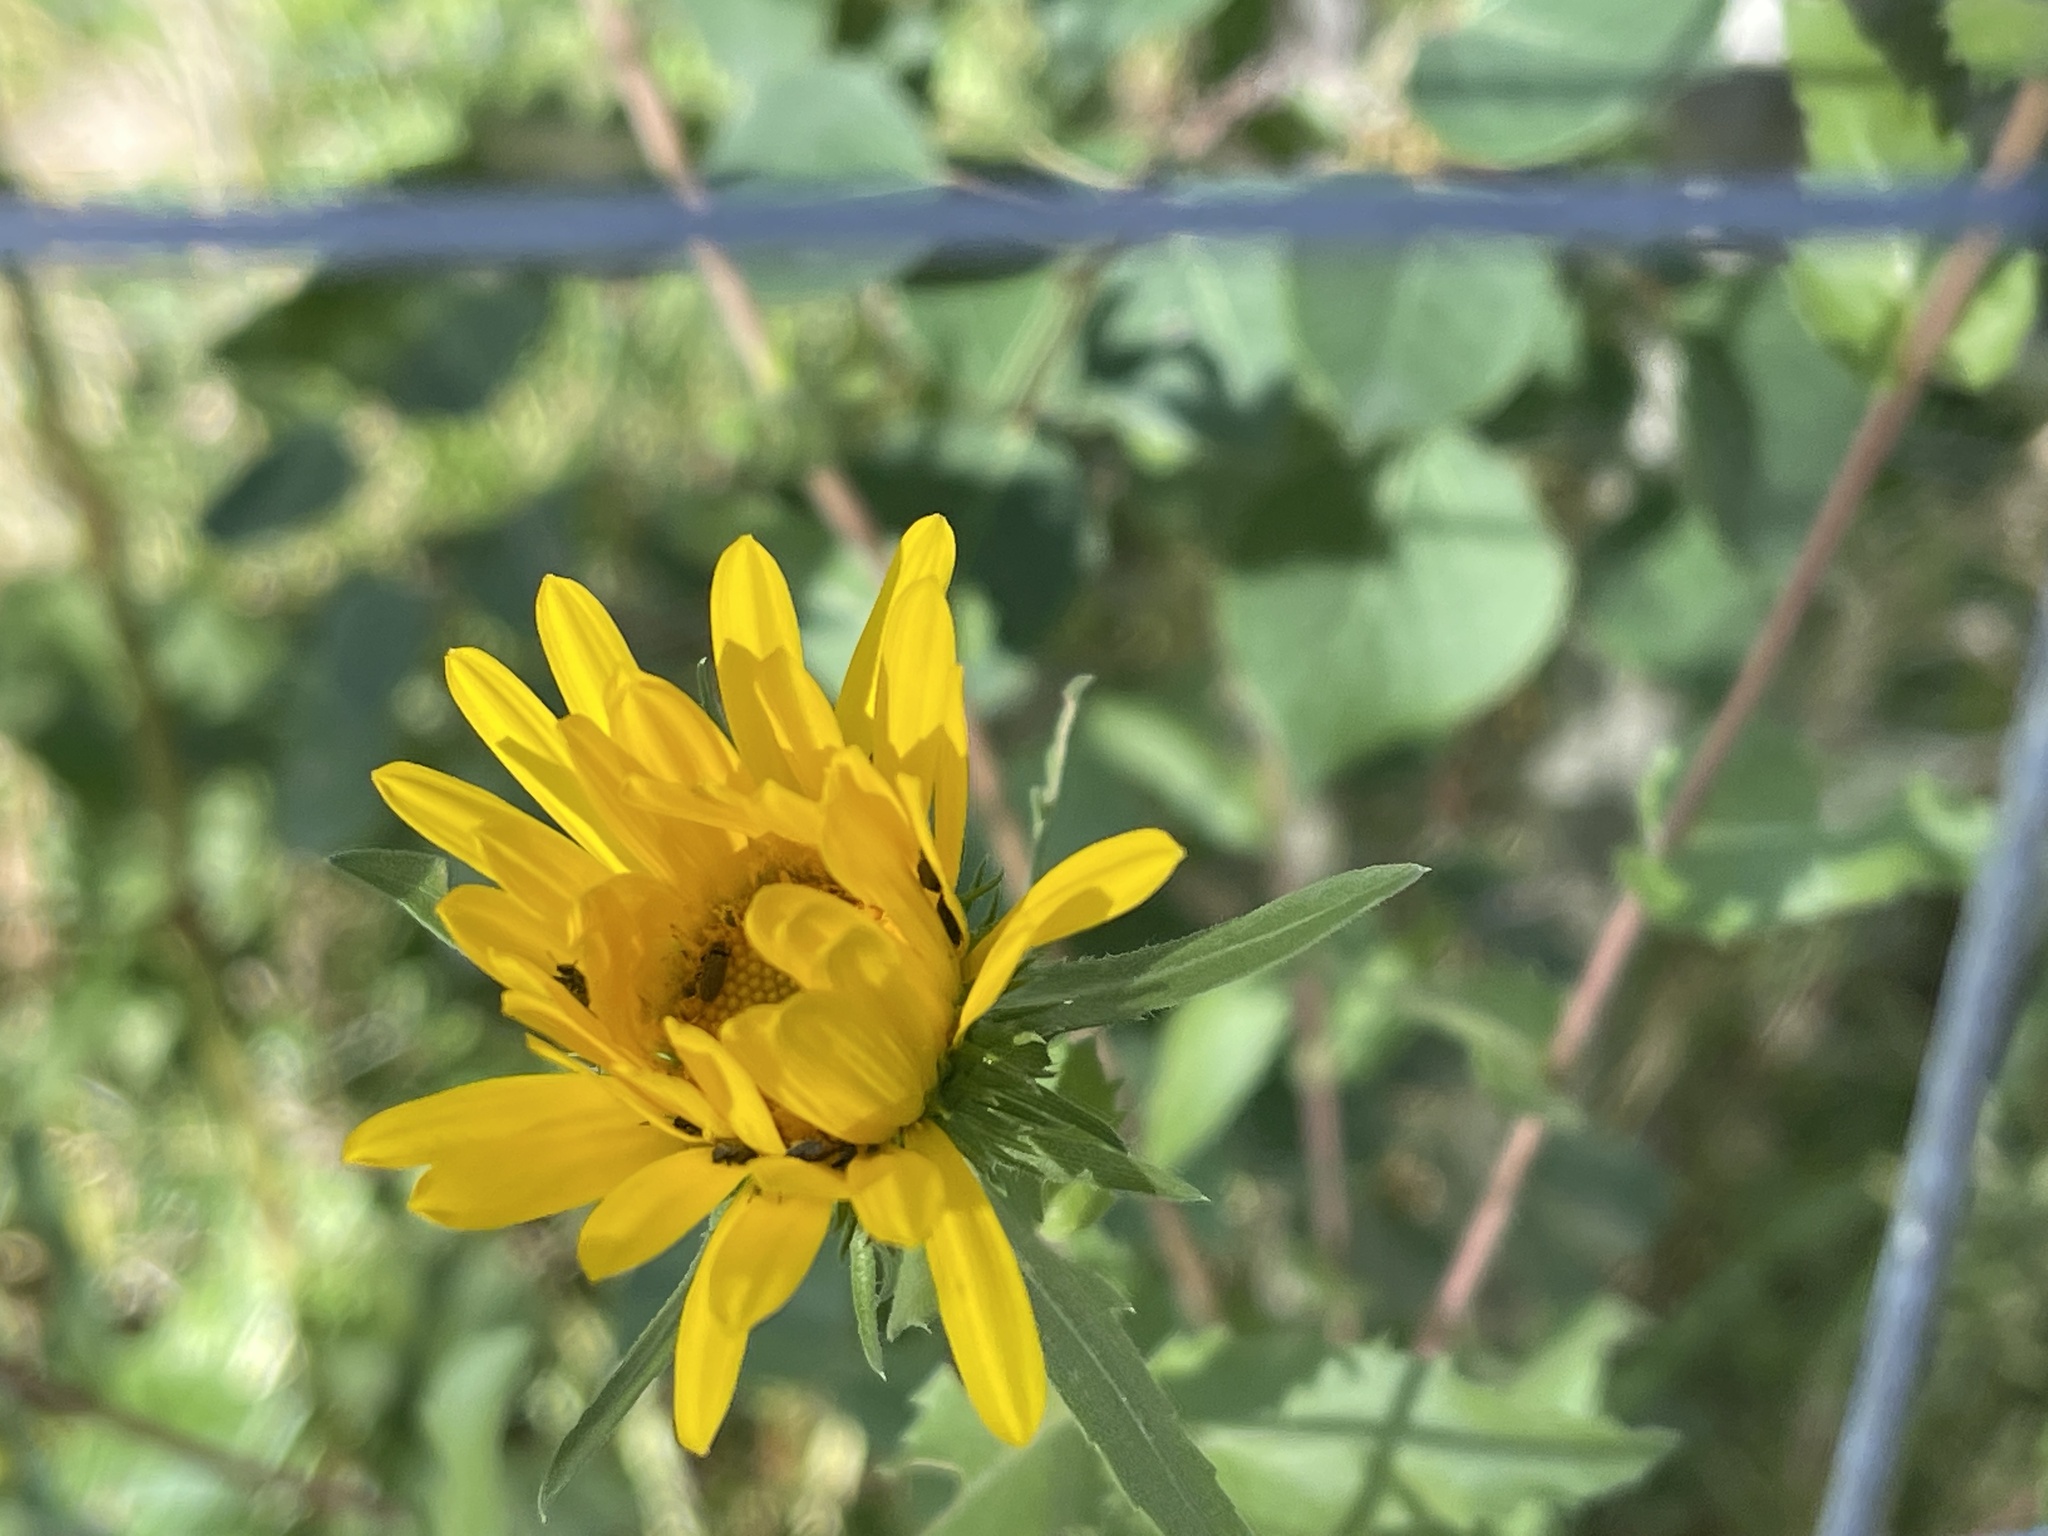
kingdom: Plantae
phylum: Tracheophyta
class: Magnoliopsida
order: Asterales
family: Asteraceae
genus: Grindelia
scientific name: Grindelia scabra
